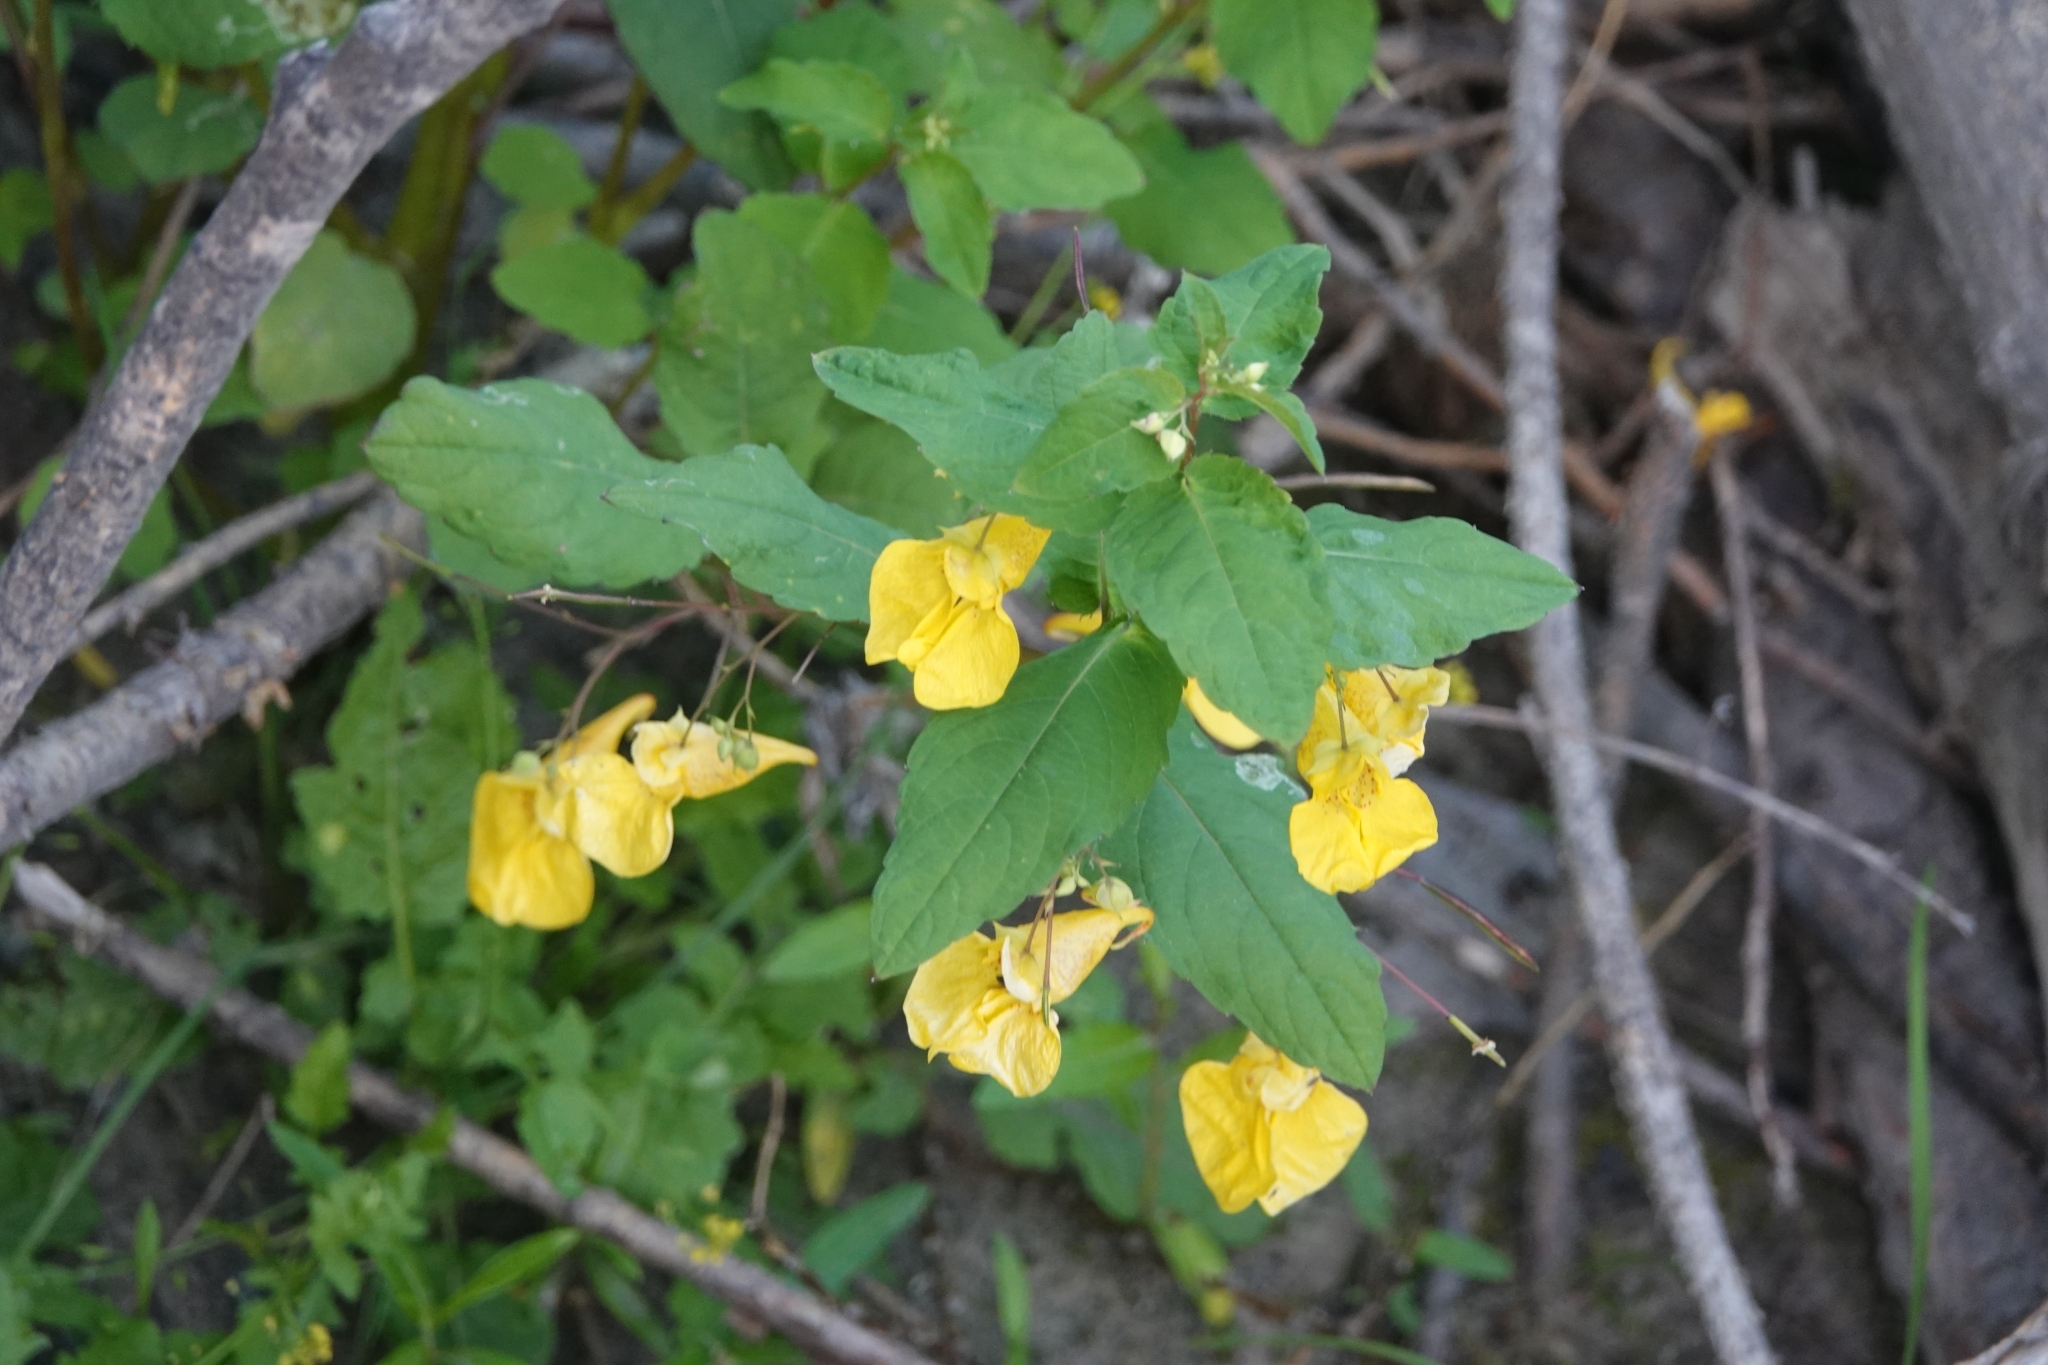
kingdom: Plantae
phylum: Tracheophyta
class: Magnoliopsida
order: Ericales
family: Balsaminaceae
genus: Impatiens
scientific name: Impatiens noli-tangere
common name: Touch-me-not balsam
